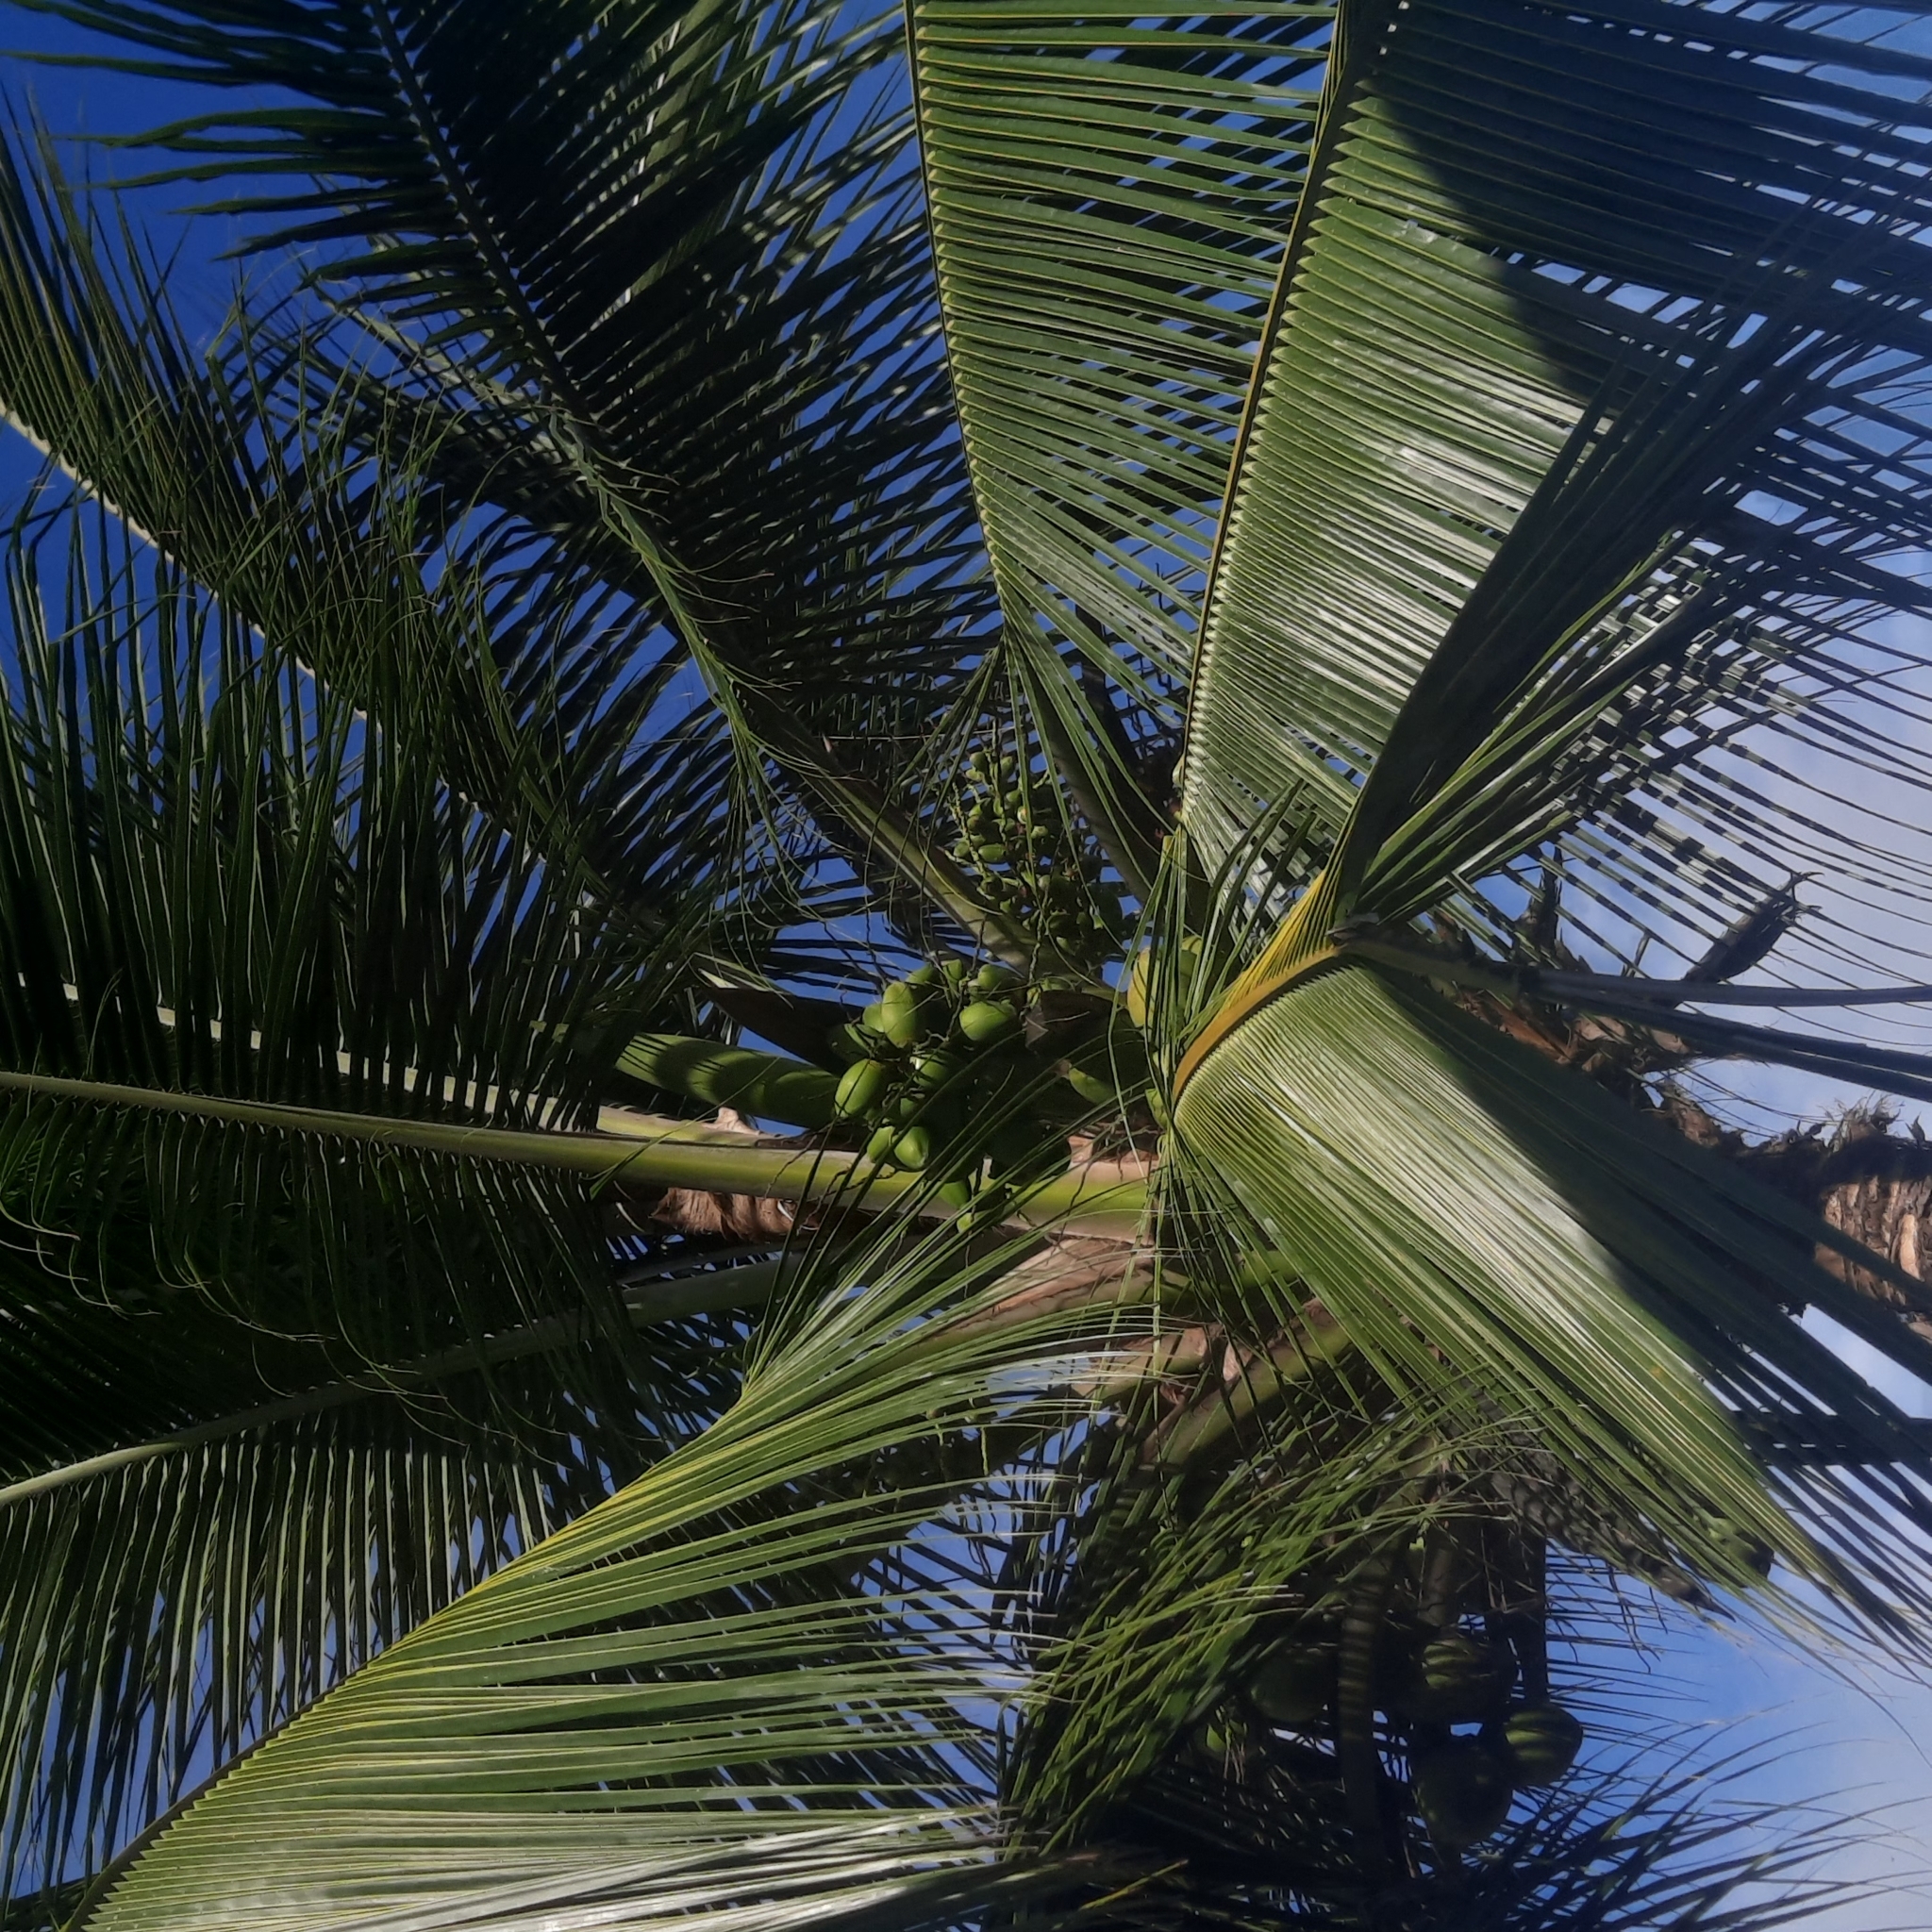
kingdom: Plantae
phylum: Tracheophyta
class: Liliopsida
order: Arecales
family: Arecaceae
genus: Cocos
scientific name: Cocos nucifera
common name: Coconut palm
